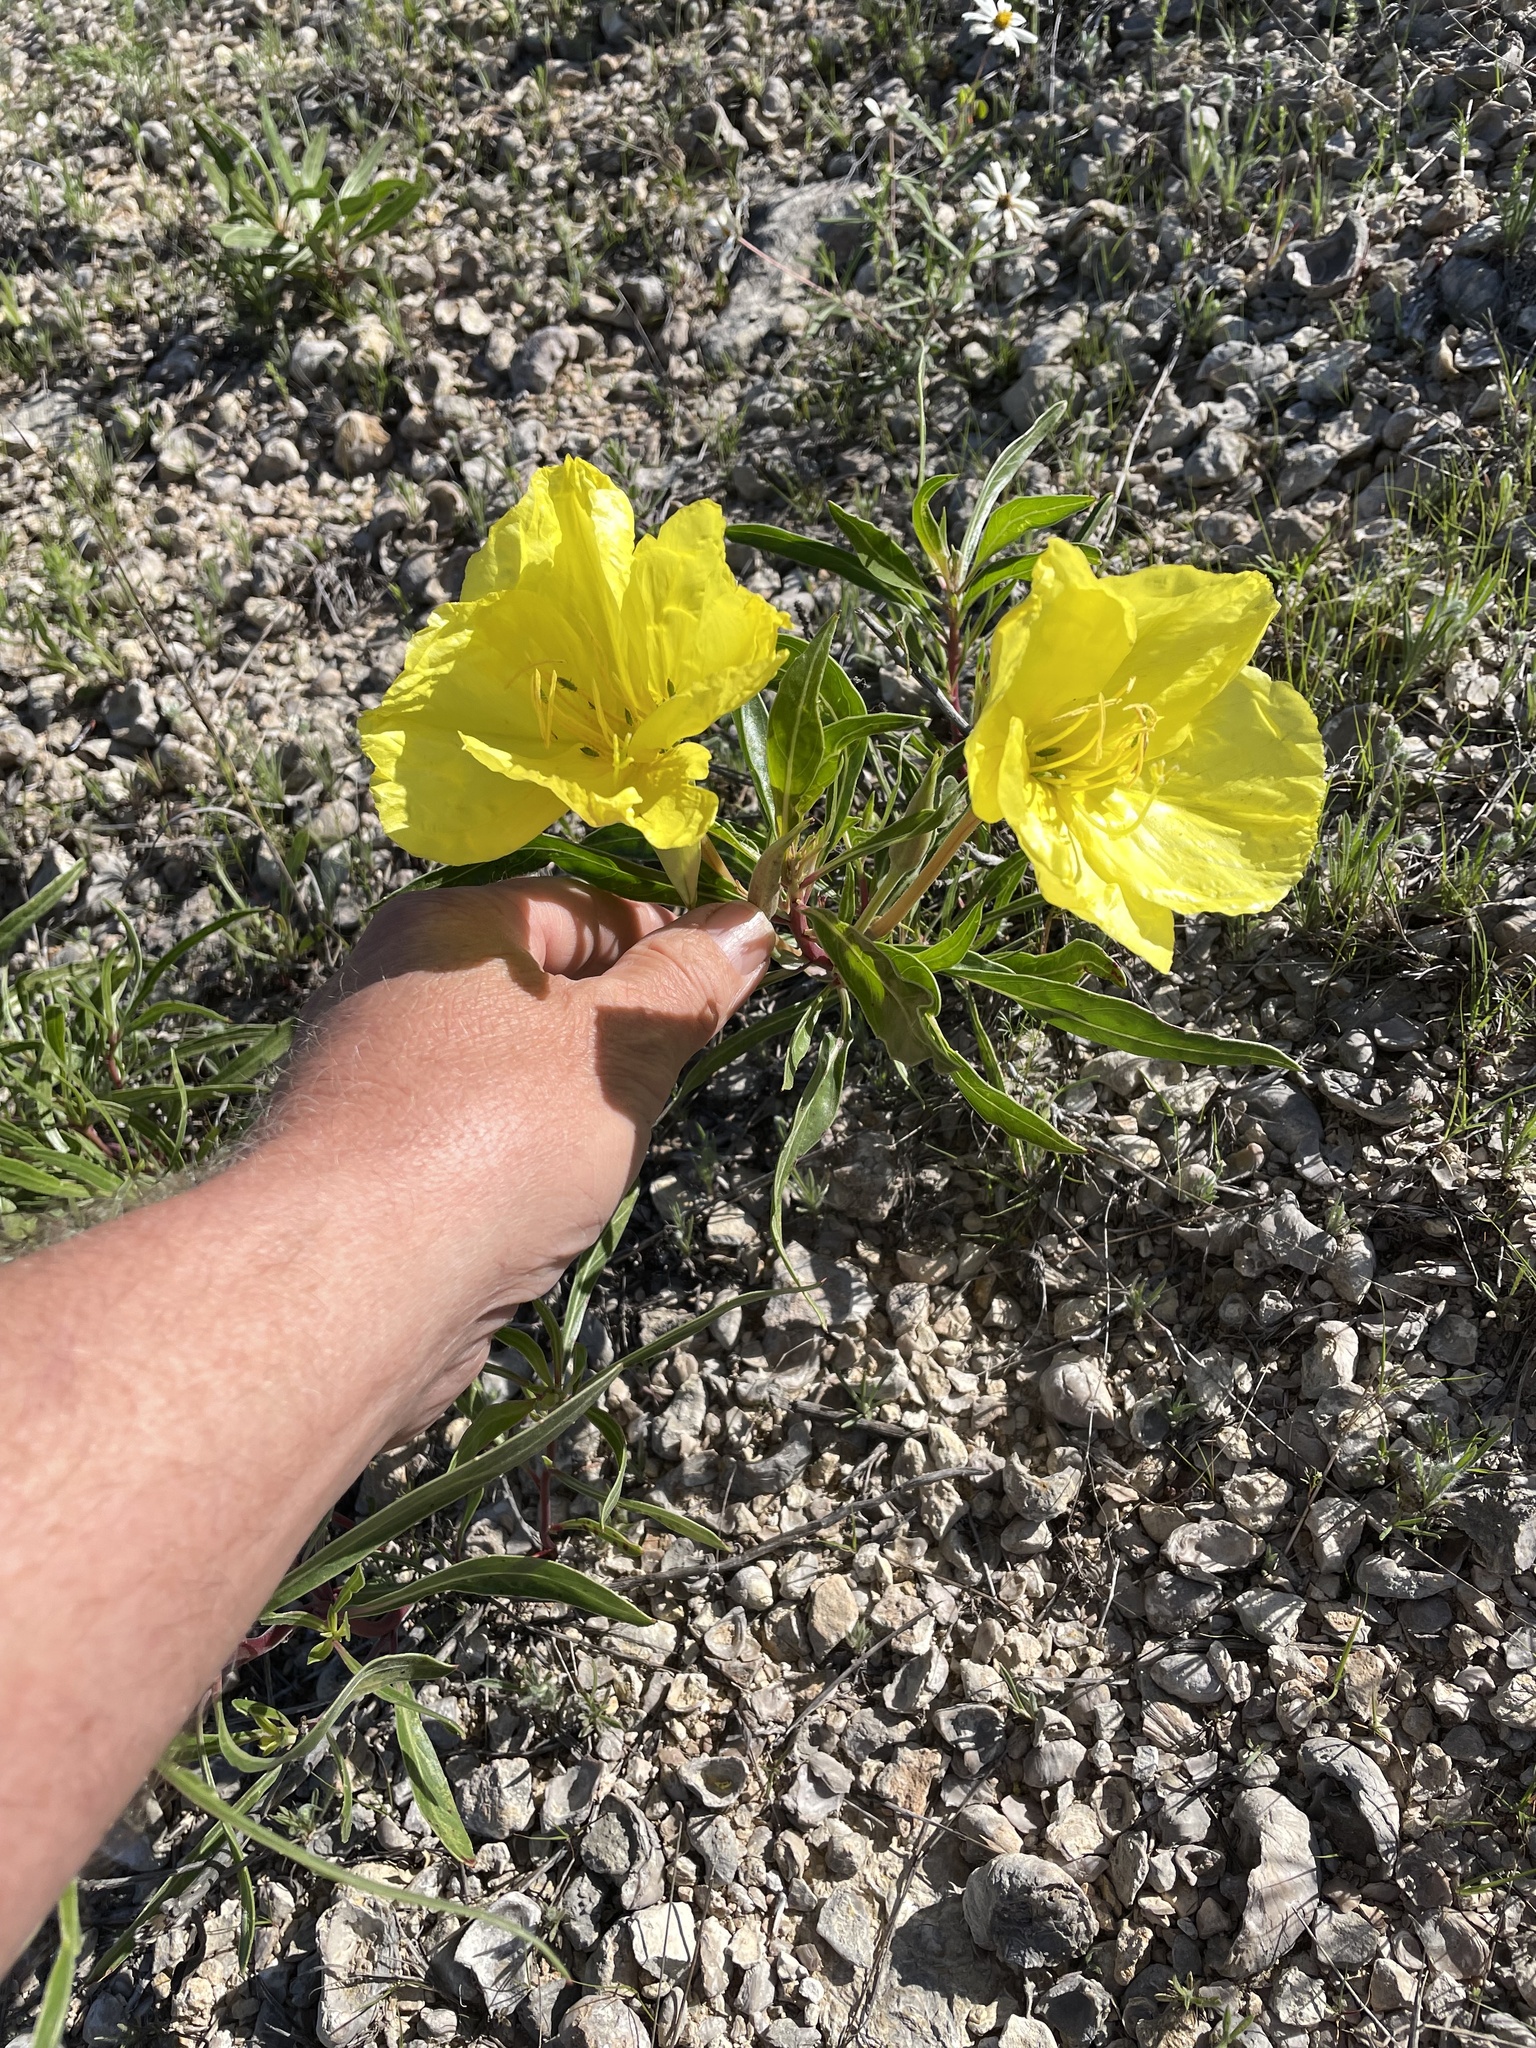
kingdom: Plantae
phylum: Tracheophyta
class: Magnoliopsida
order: Myrtales
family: Onagraceae
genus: Oenothera
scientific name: Oenothera macrocarpa
